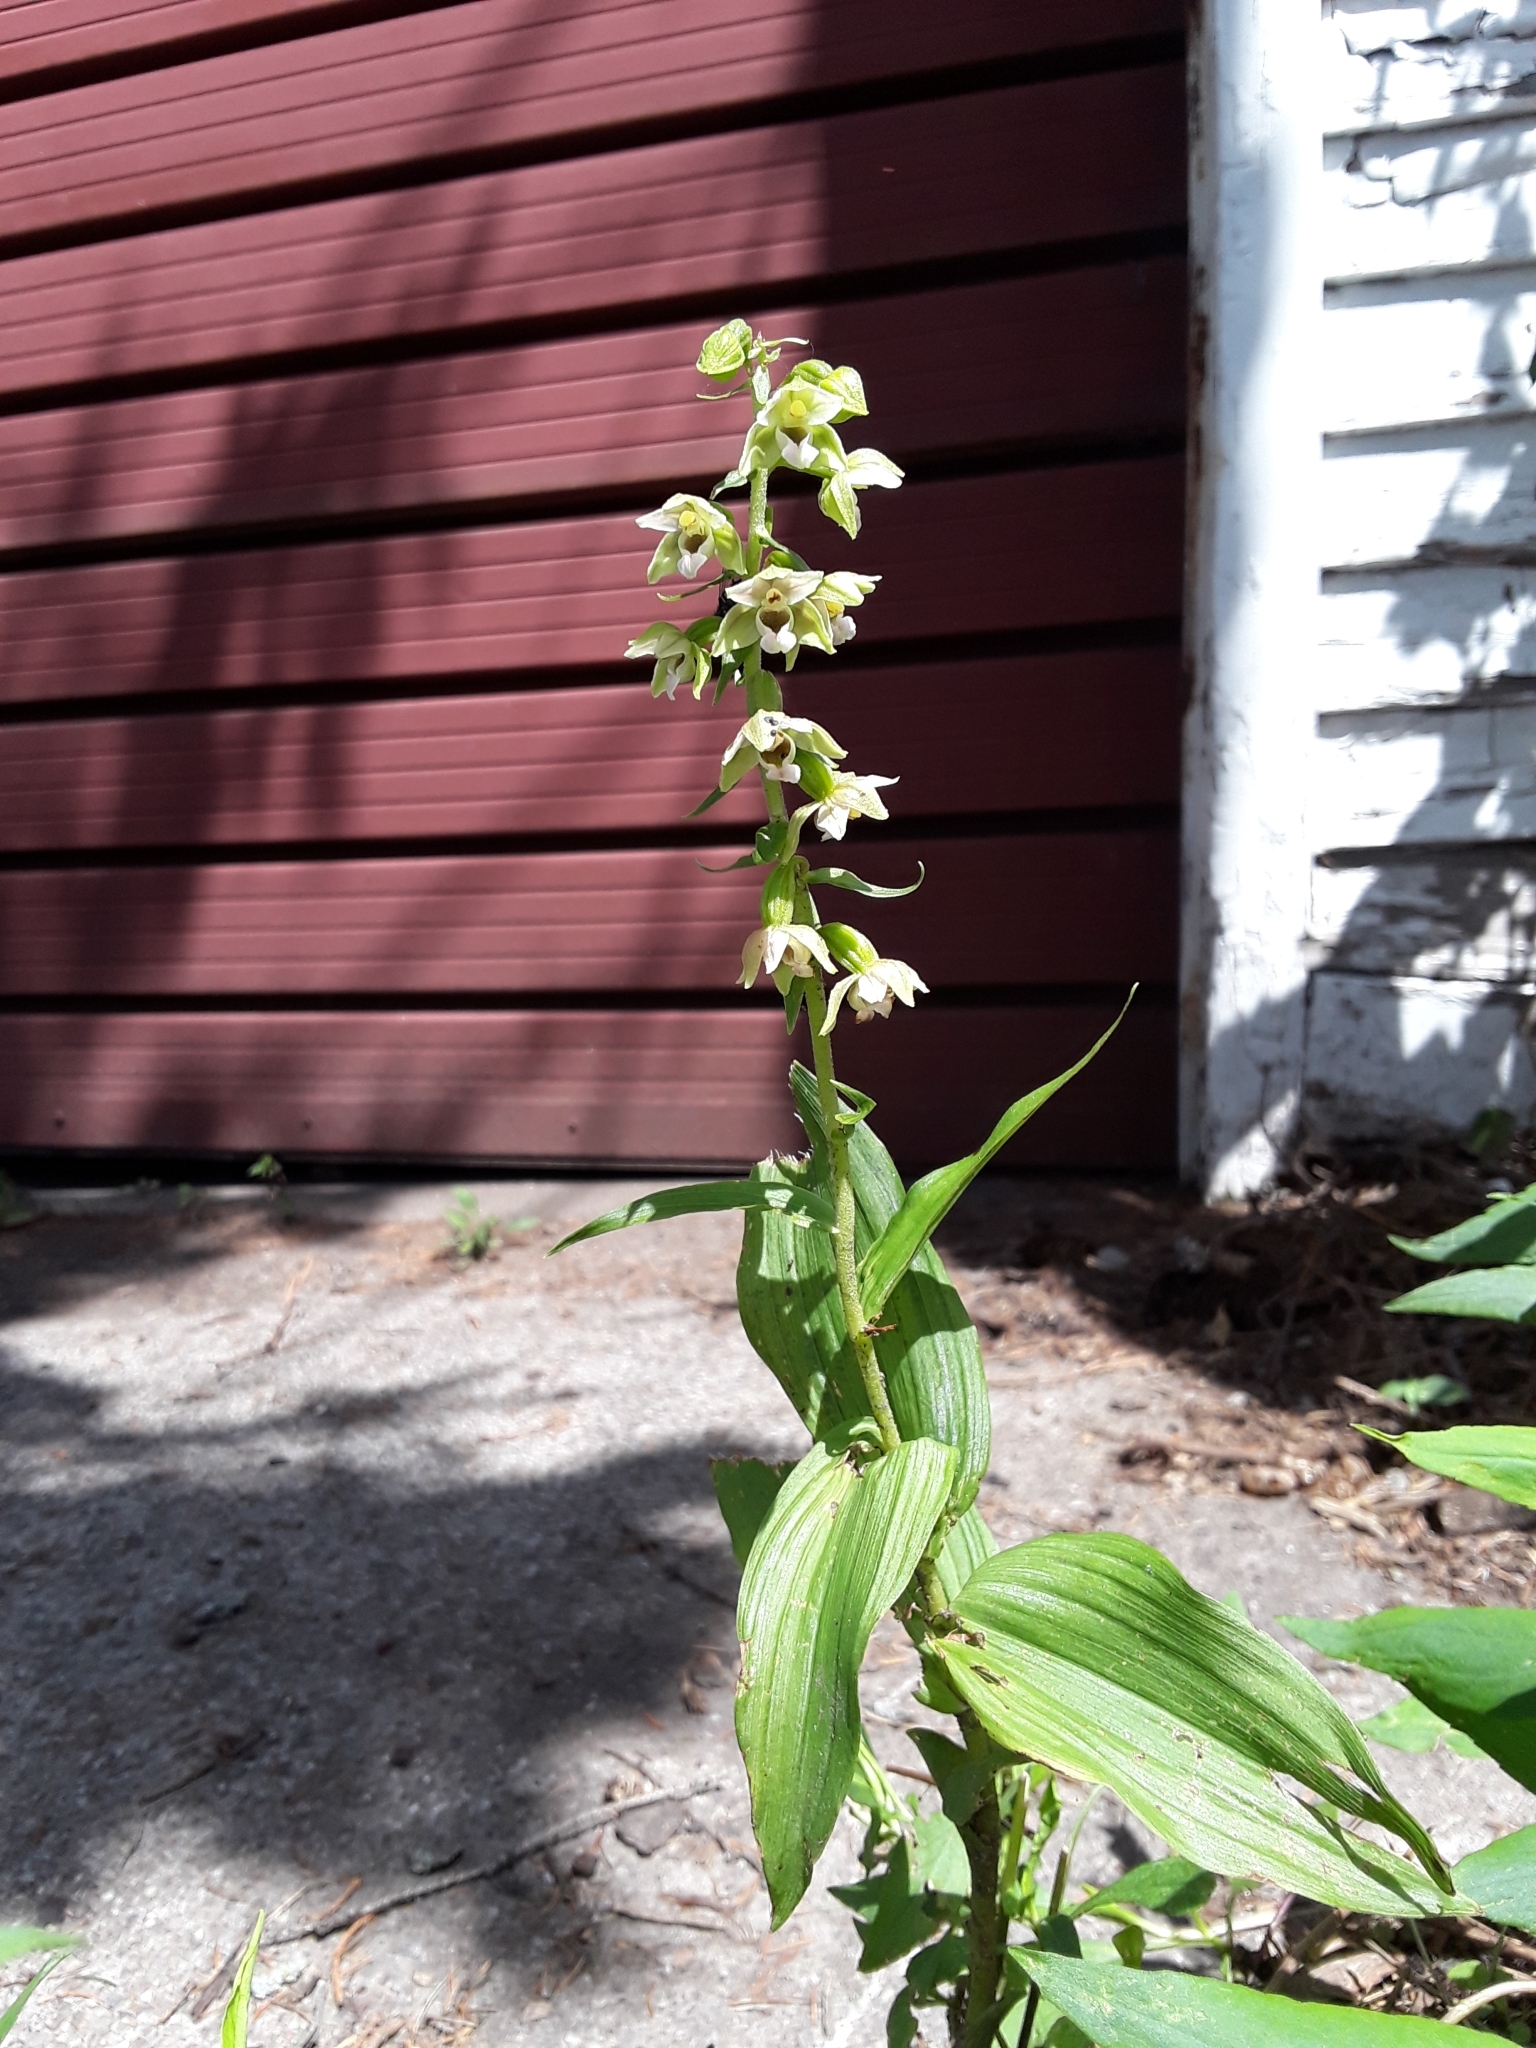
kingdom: Plantae
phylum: Tracheophyta
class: Liliopsida
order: Asparagales
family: Orchidaceae
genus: Epipactis
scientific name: Epipactis helleborine
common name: Broad-leaved helleborine
